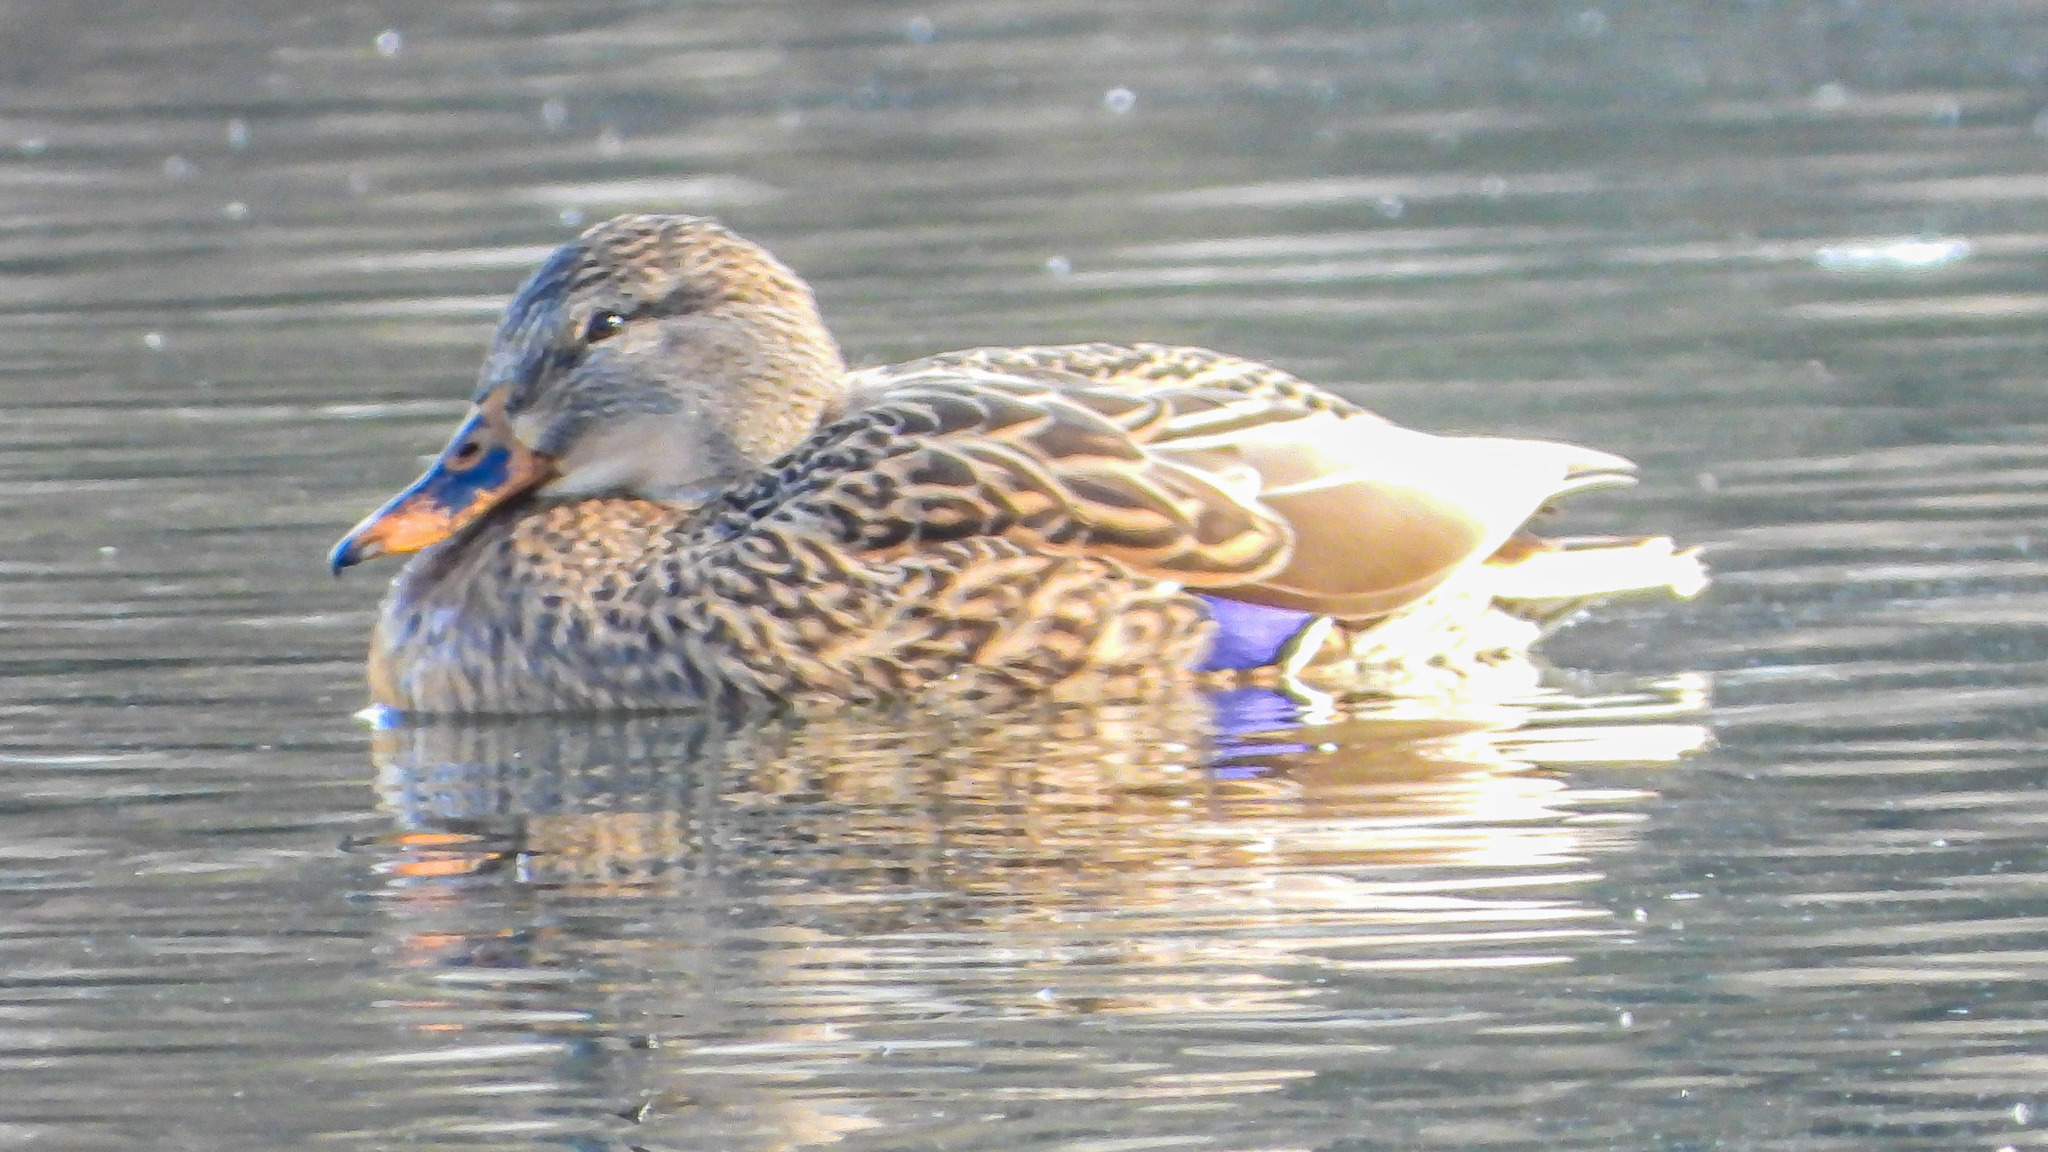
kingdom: Animalia
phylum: Chordata
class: Aves
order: Anseriformes
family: Anatidae
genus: Anas
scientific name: Anas platyrhynchos
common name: Mallard
